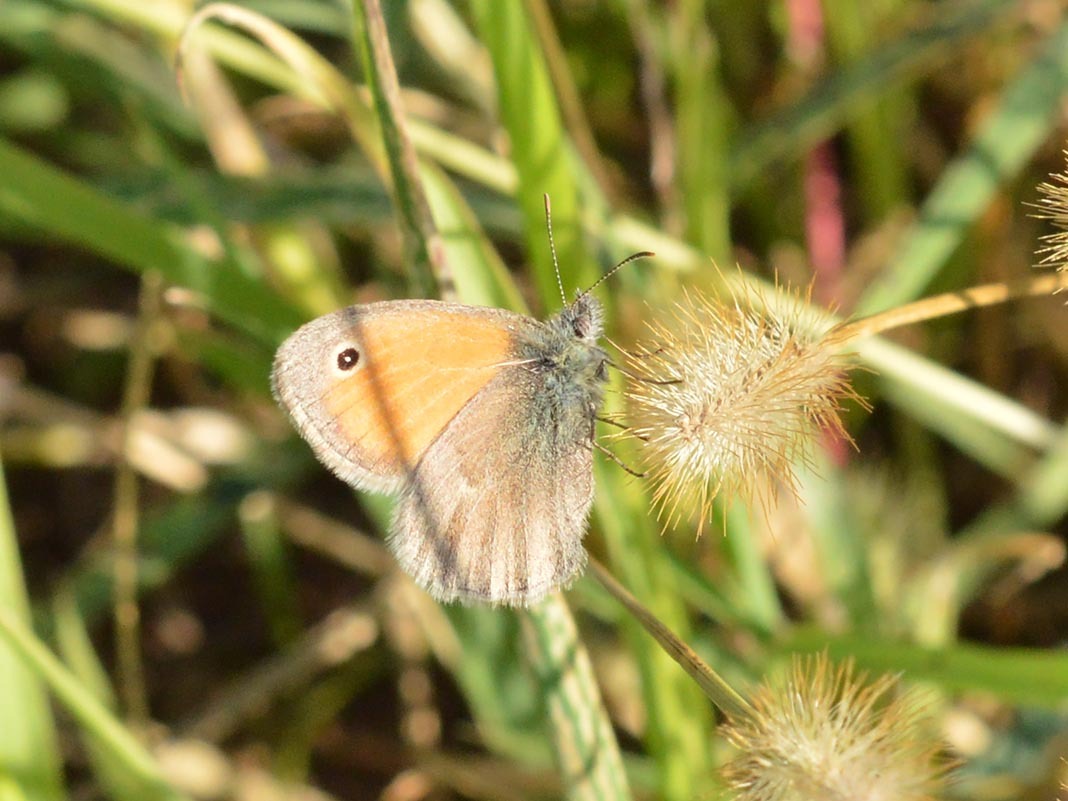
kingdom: Animalia
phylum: Arthropoda
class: Insecta
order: Lepidoptera
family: Nymphalidae
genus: Coenonympha
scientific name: Coenonympha pamphilus
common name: Small heath
